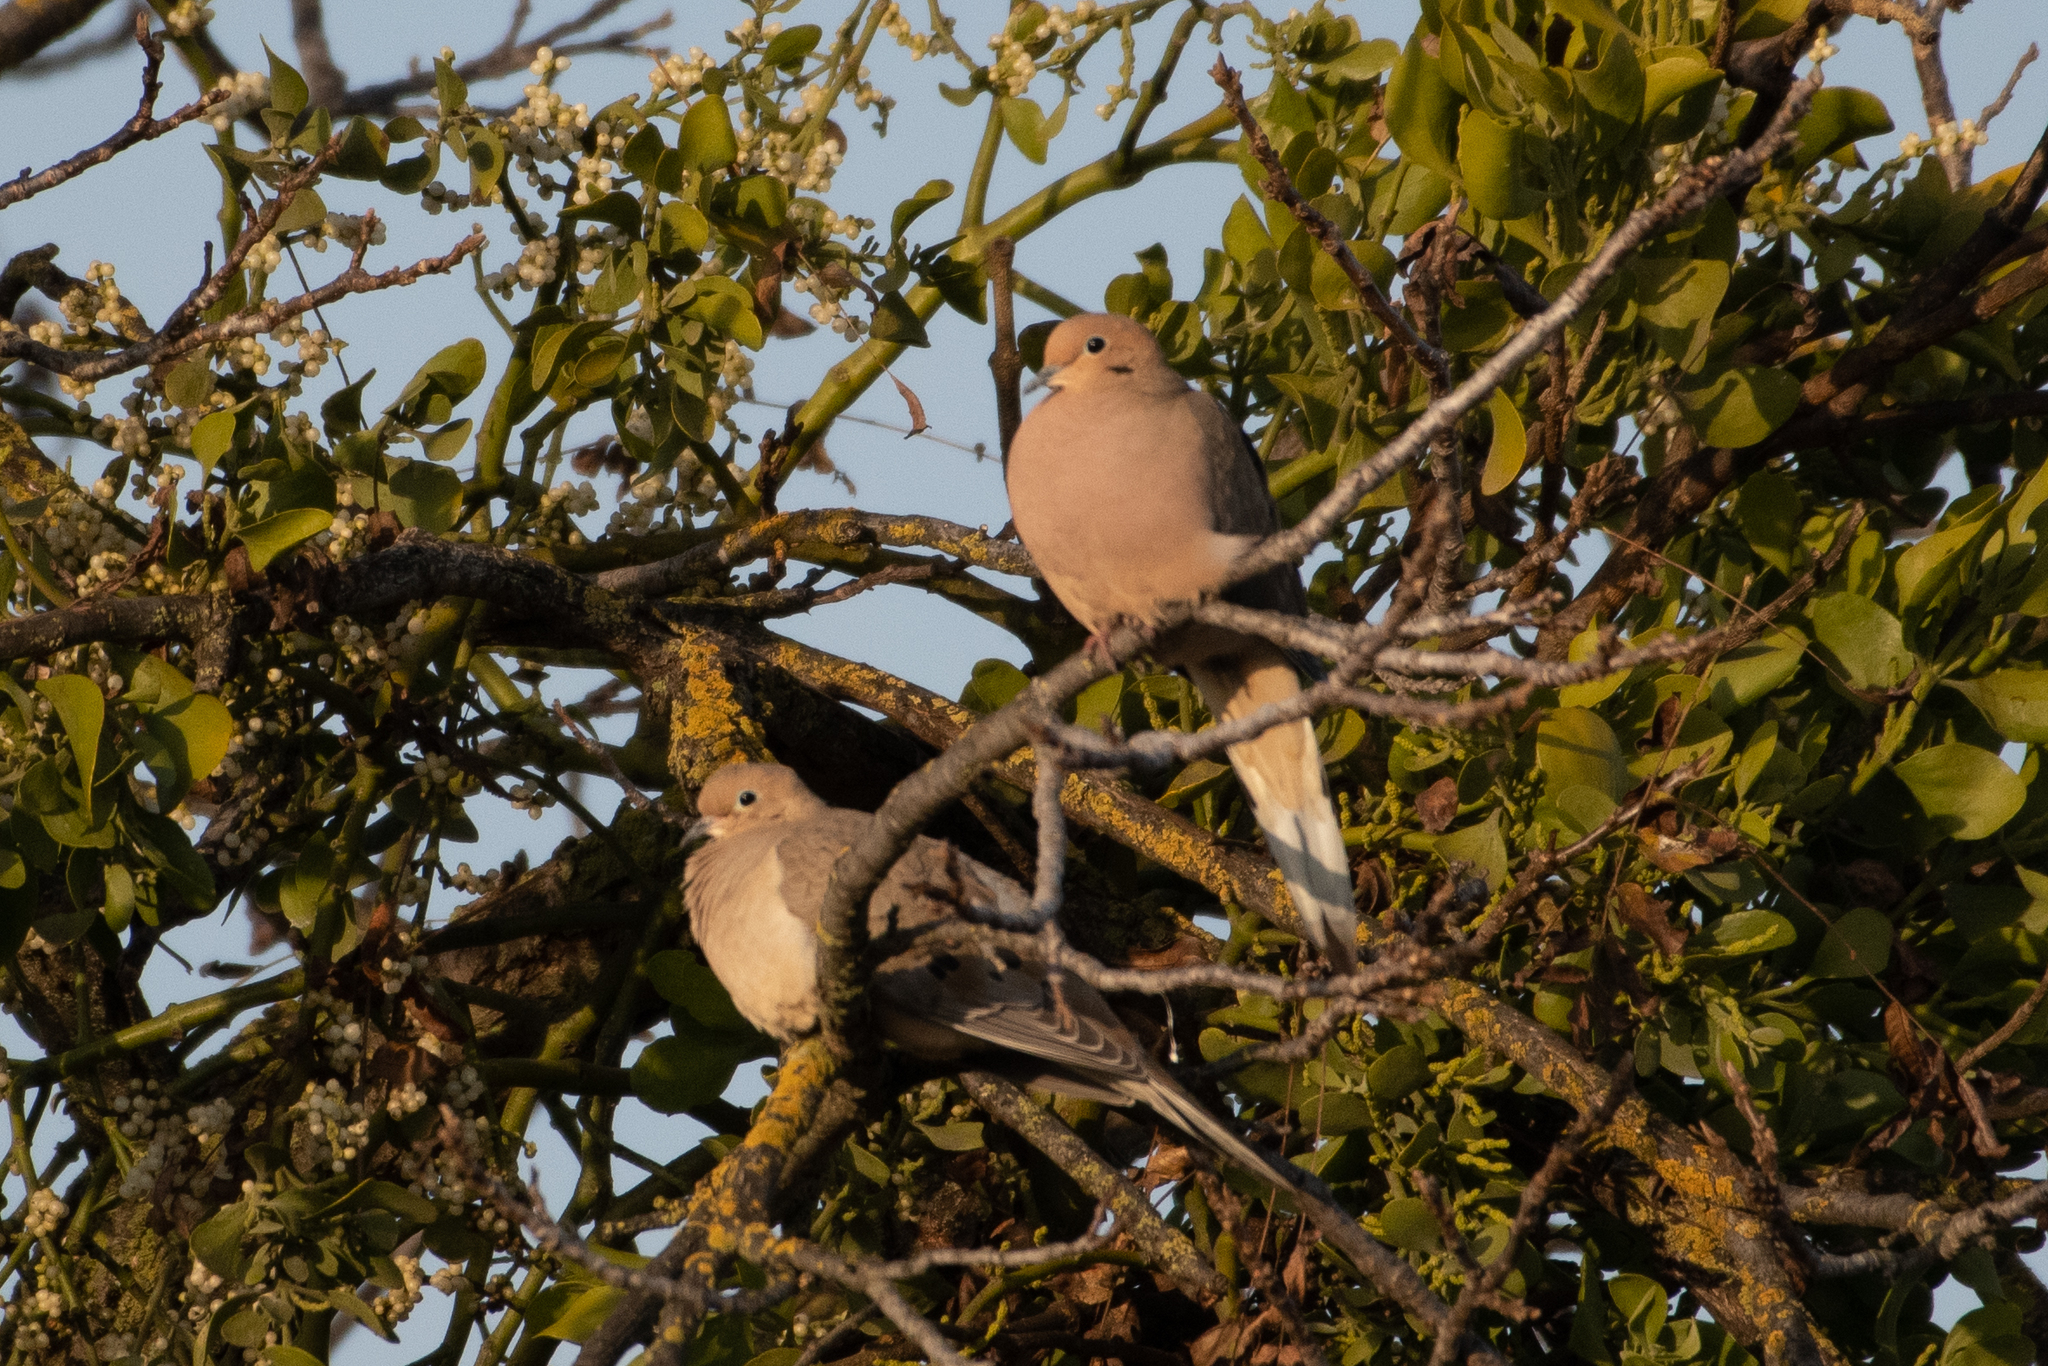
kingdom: Animalia
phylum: Chordata
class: Aves
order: Columbiformes
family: Columbidae
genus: Zenaida
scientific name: Zenaida macroura
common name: Mourning dove
